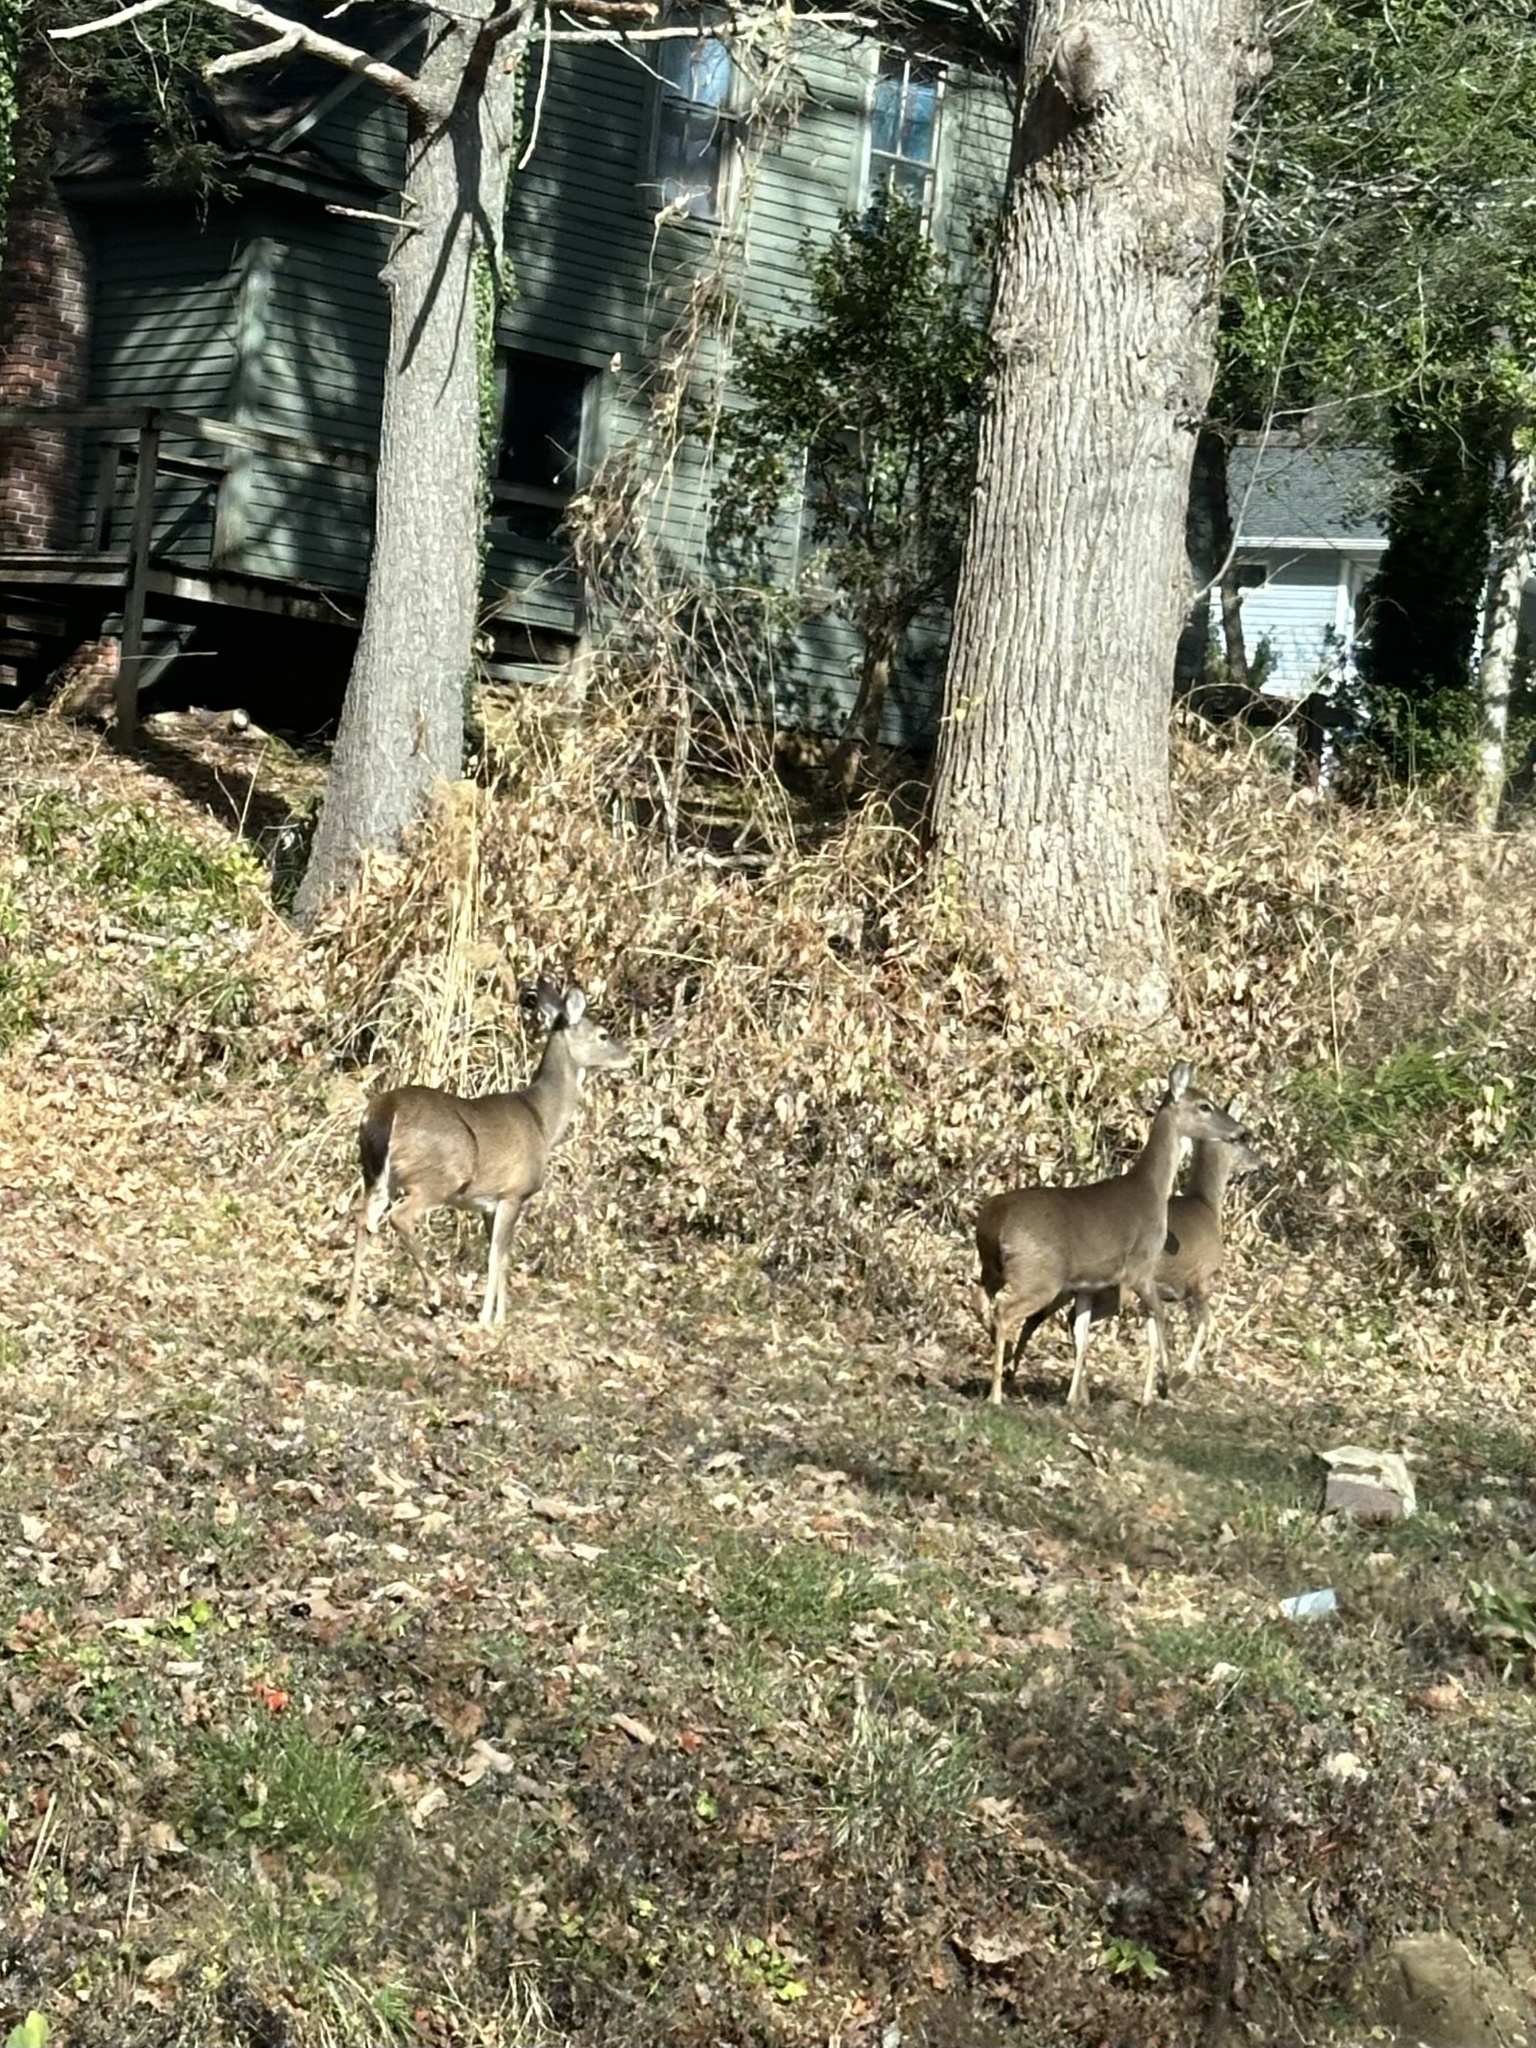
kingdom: Animalia
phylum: Chordata
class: Mammalia
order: Artiodactyla
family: Cervidae
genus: Odocoileus
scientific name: Odocoileus virginianus
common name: White-tailed deer
